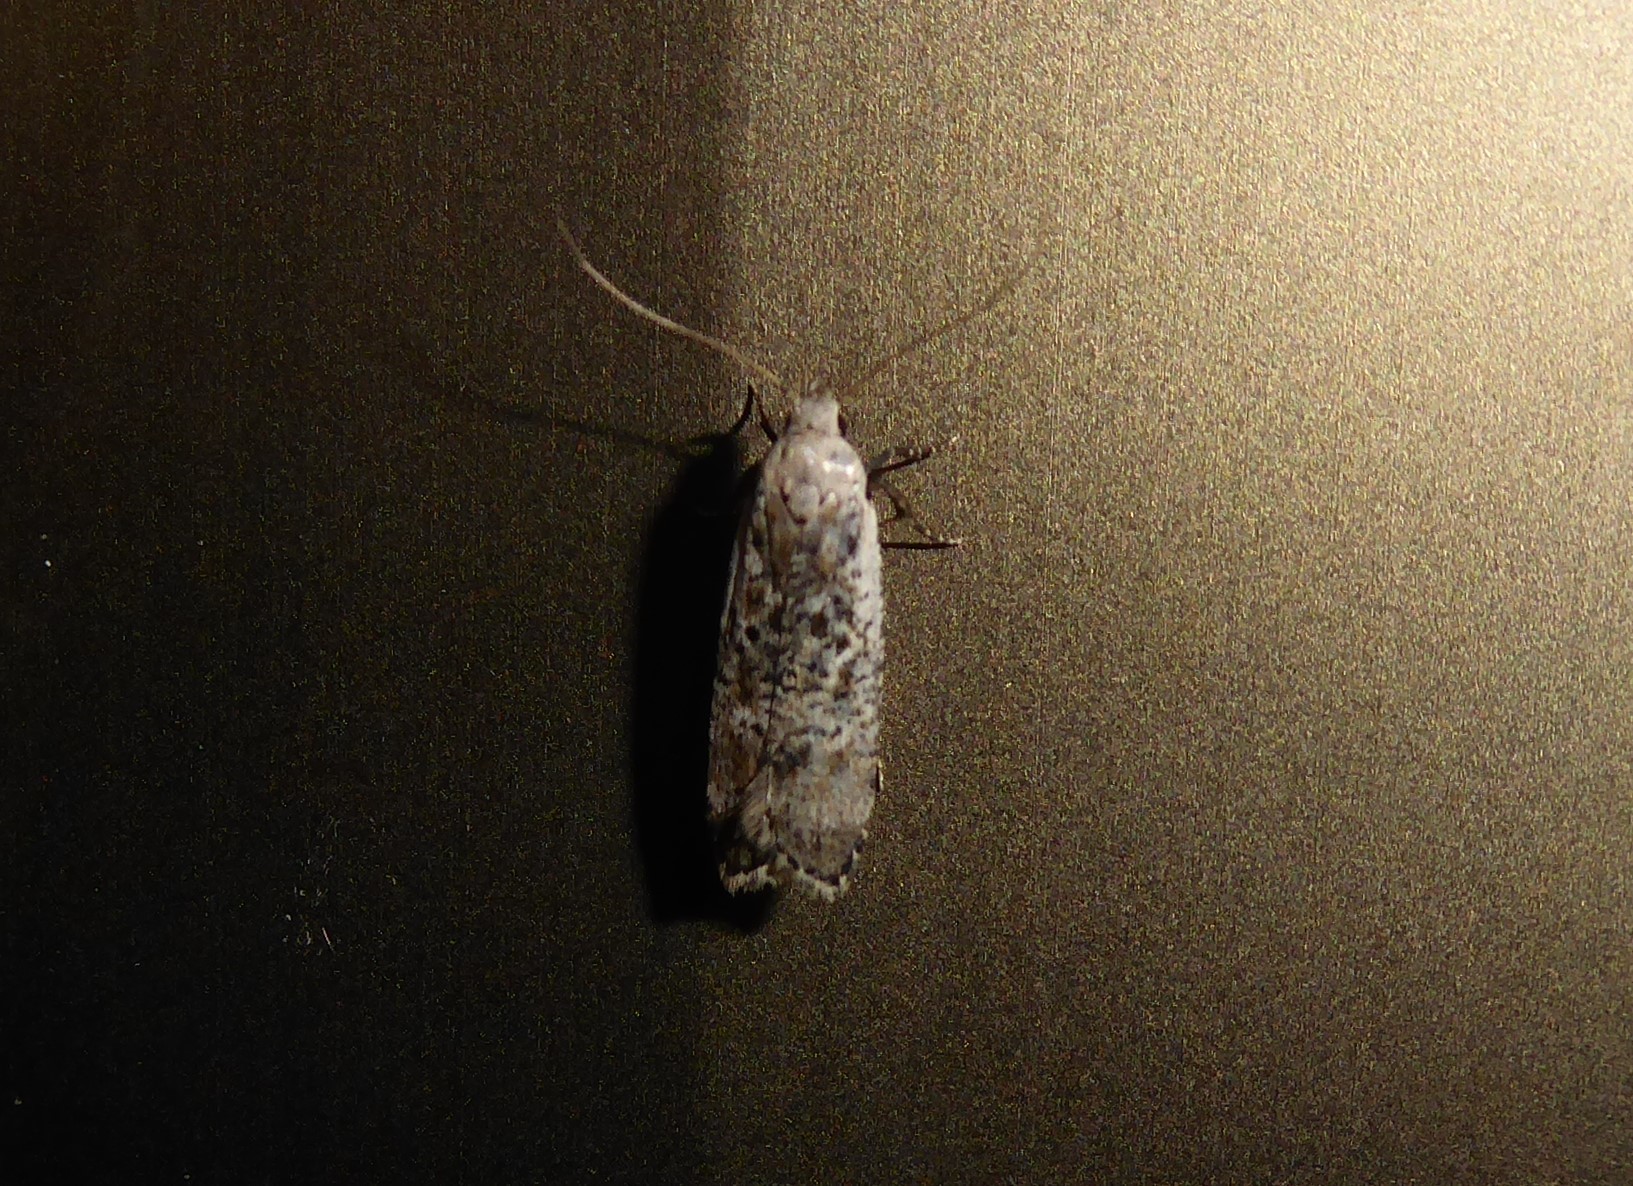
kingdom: Animalia
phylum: Arthropoda
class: Insecta
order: Lepidoptera
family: Gelechiidae
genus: Anisoplaca
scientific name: Anisoplaca achyrota
